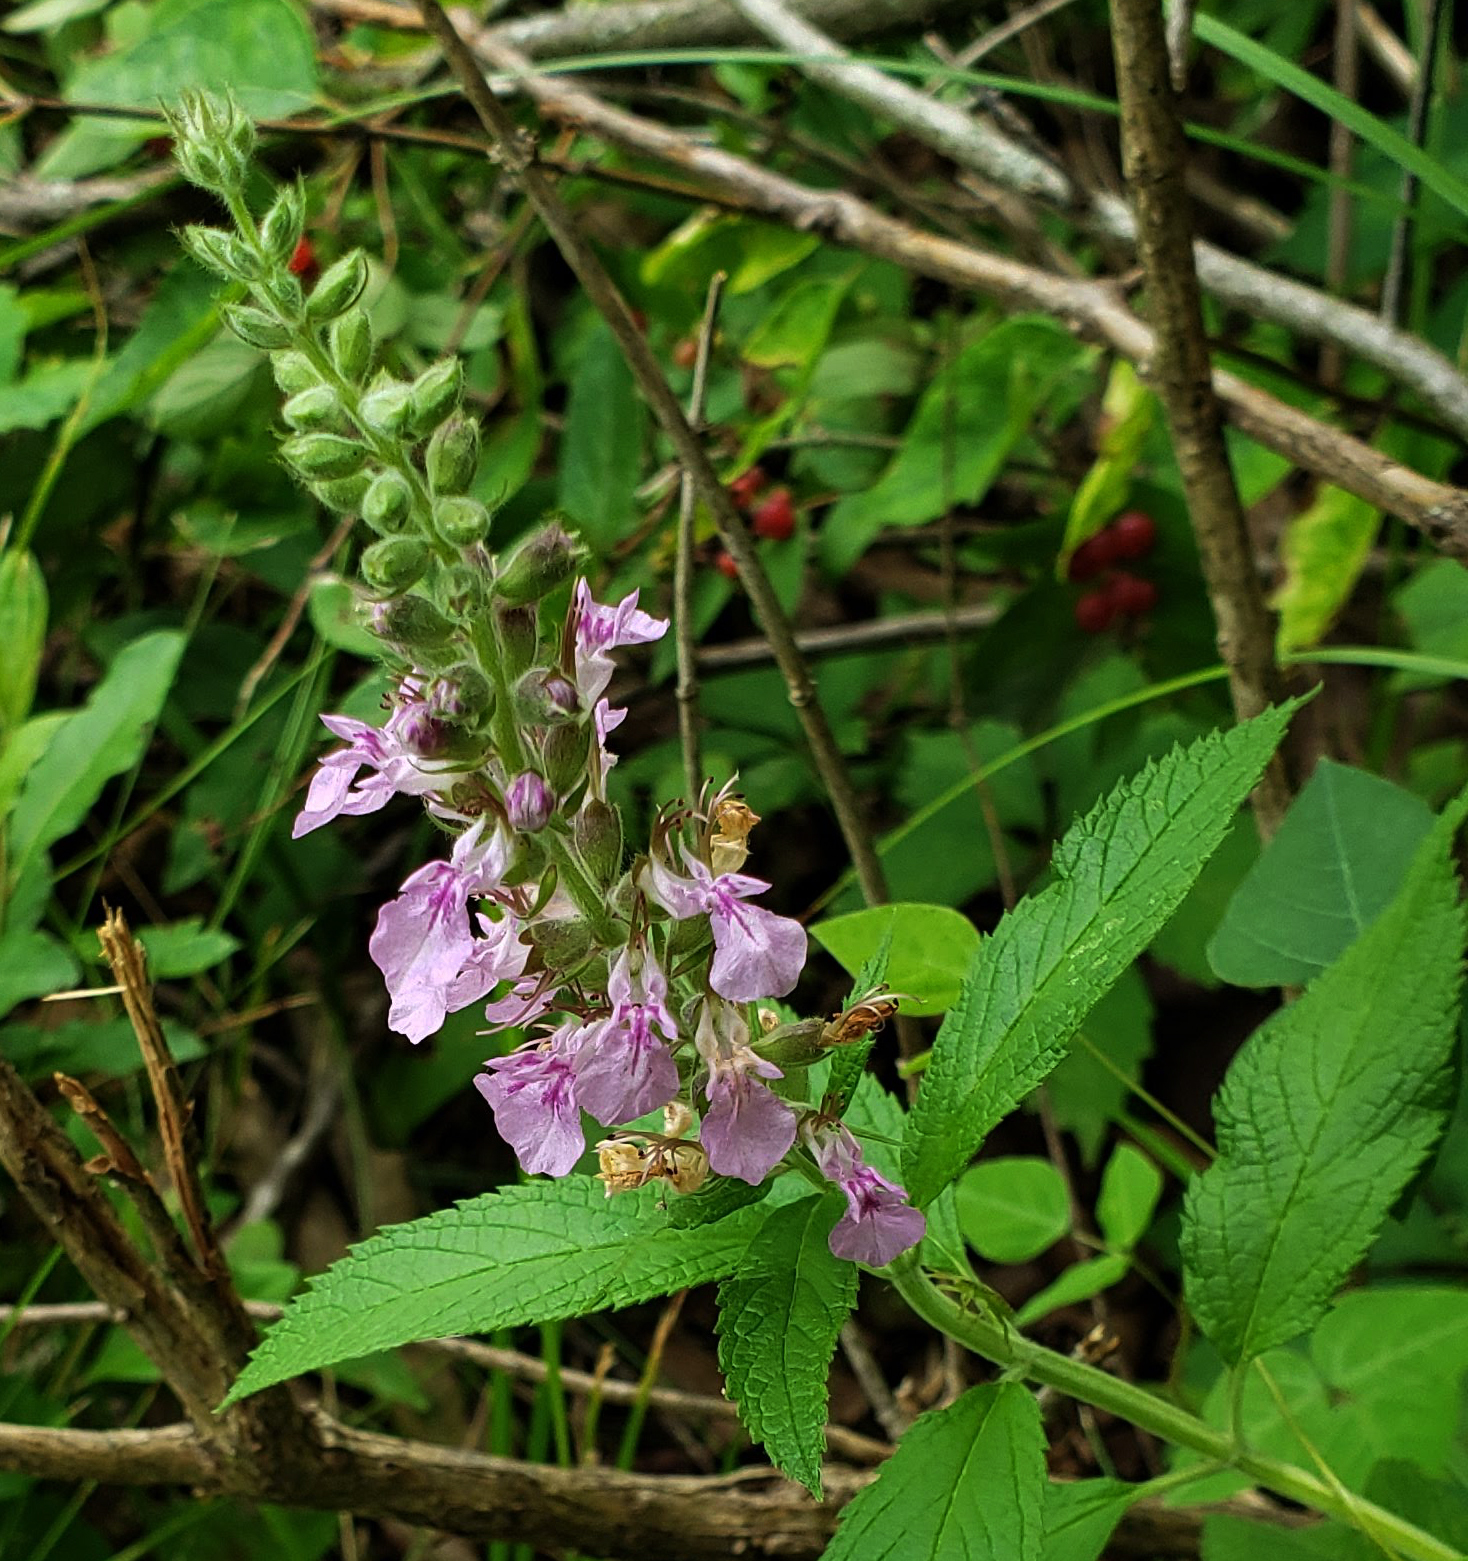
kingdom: Plantae
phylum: Tracheophyta
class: Magnoliopsida
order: Lamiales
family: Lamiaceae
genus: Teucrium
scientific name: Teucrium canadense
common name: American germander
